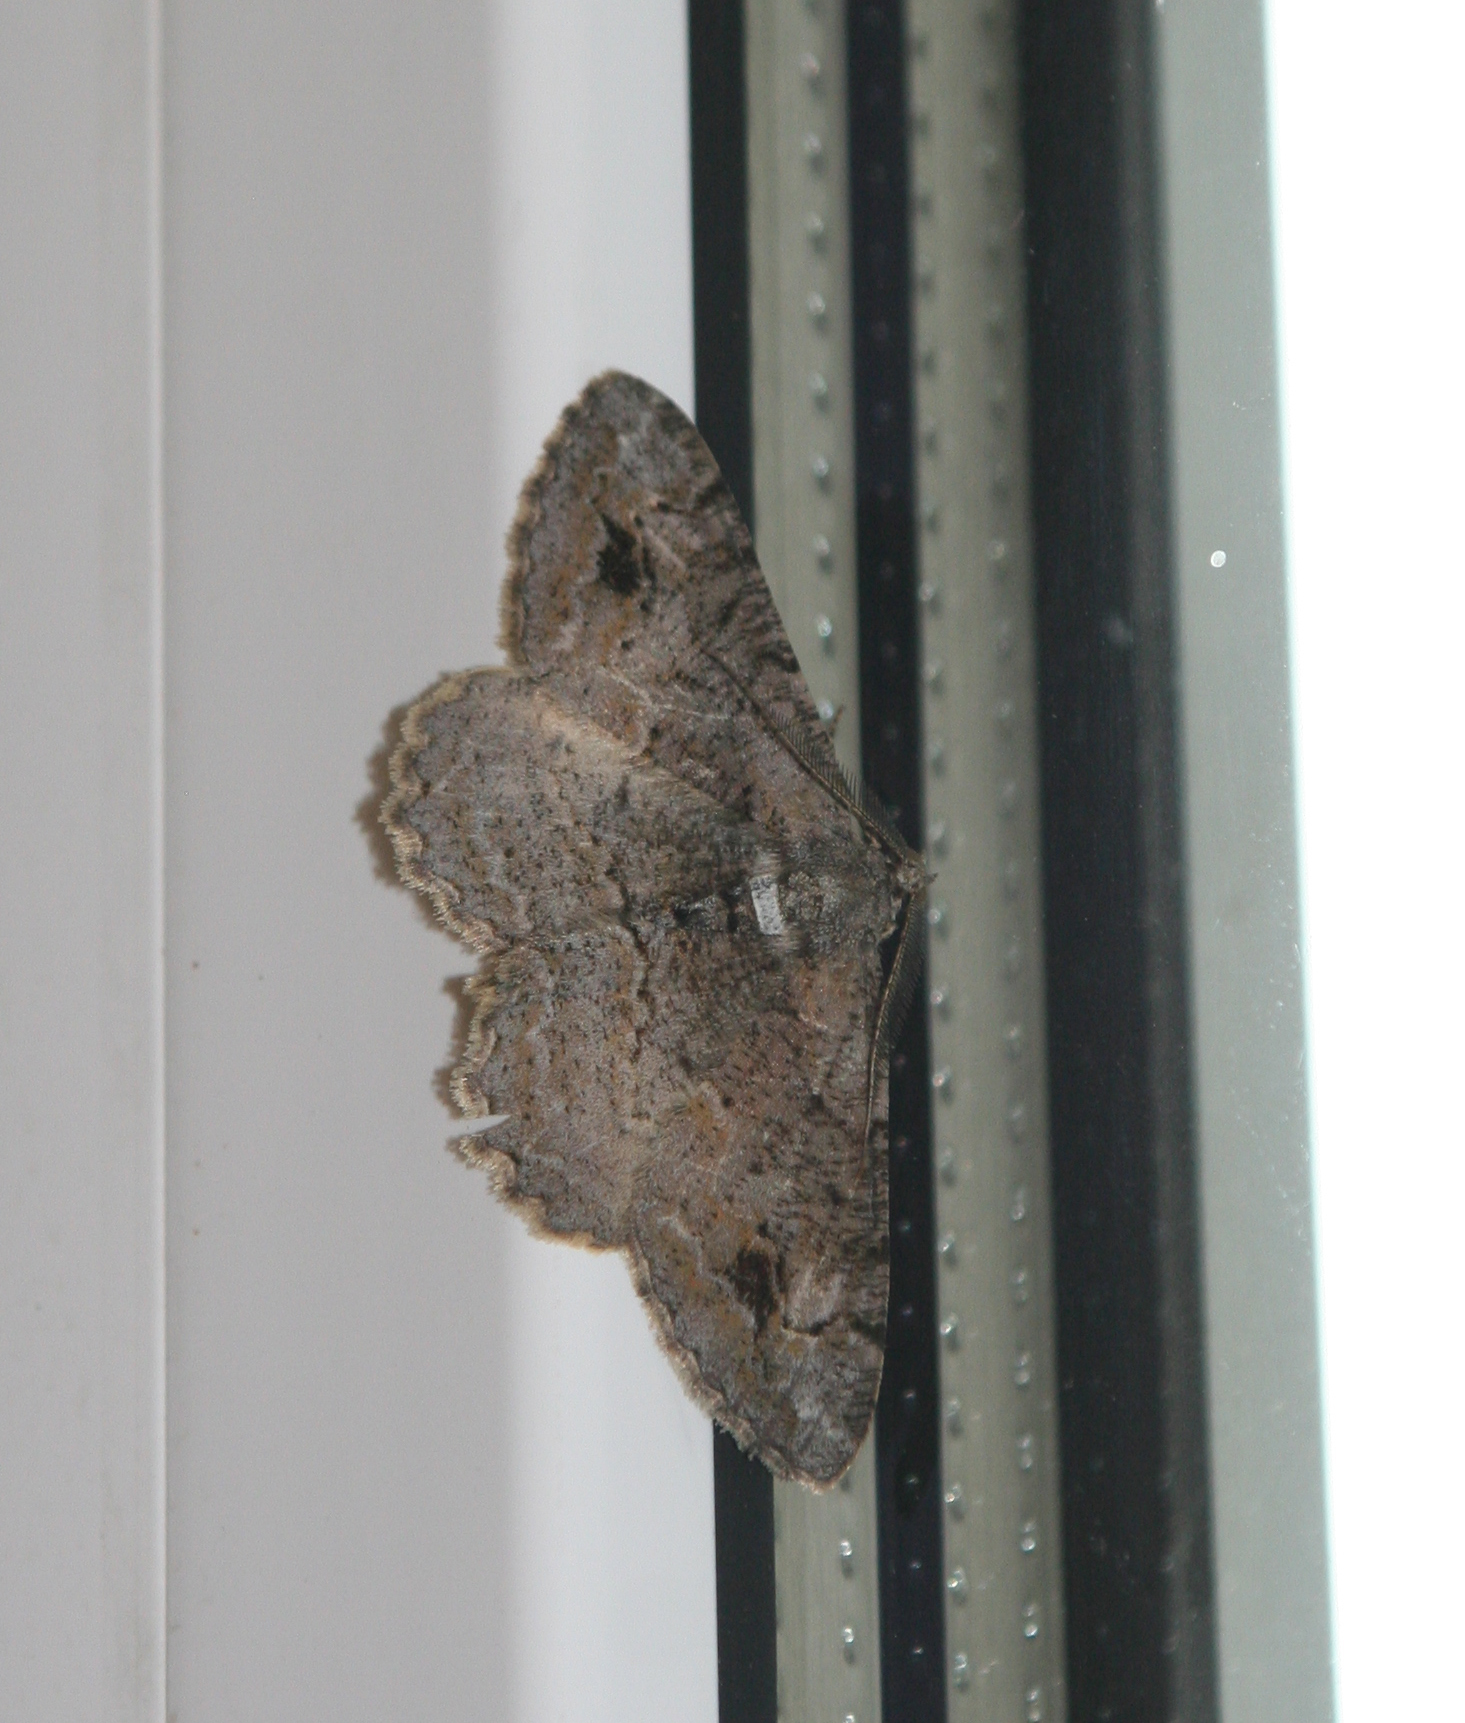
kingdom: Animalia
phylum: Arthropoda
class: Insecta
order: Lepidoptera
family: Geometridae
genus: Alcis
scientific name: Alcis deversata
